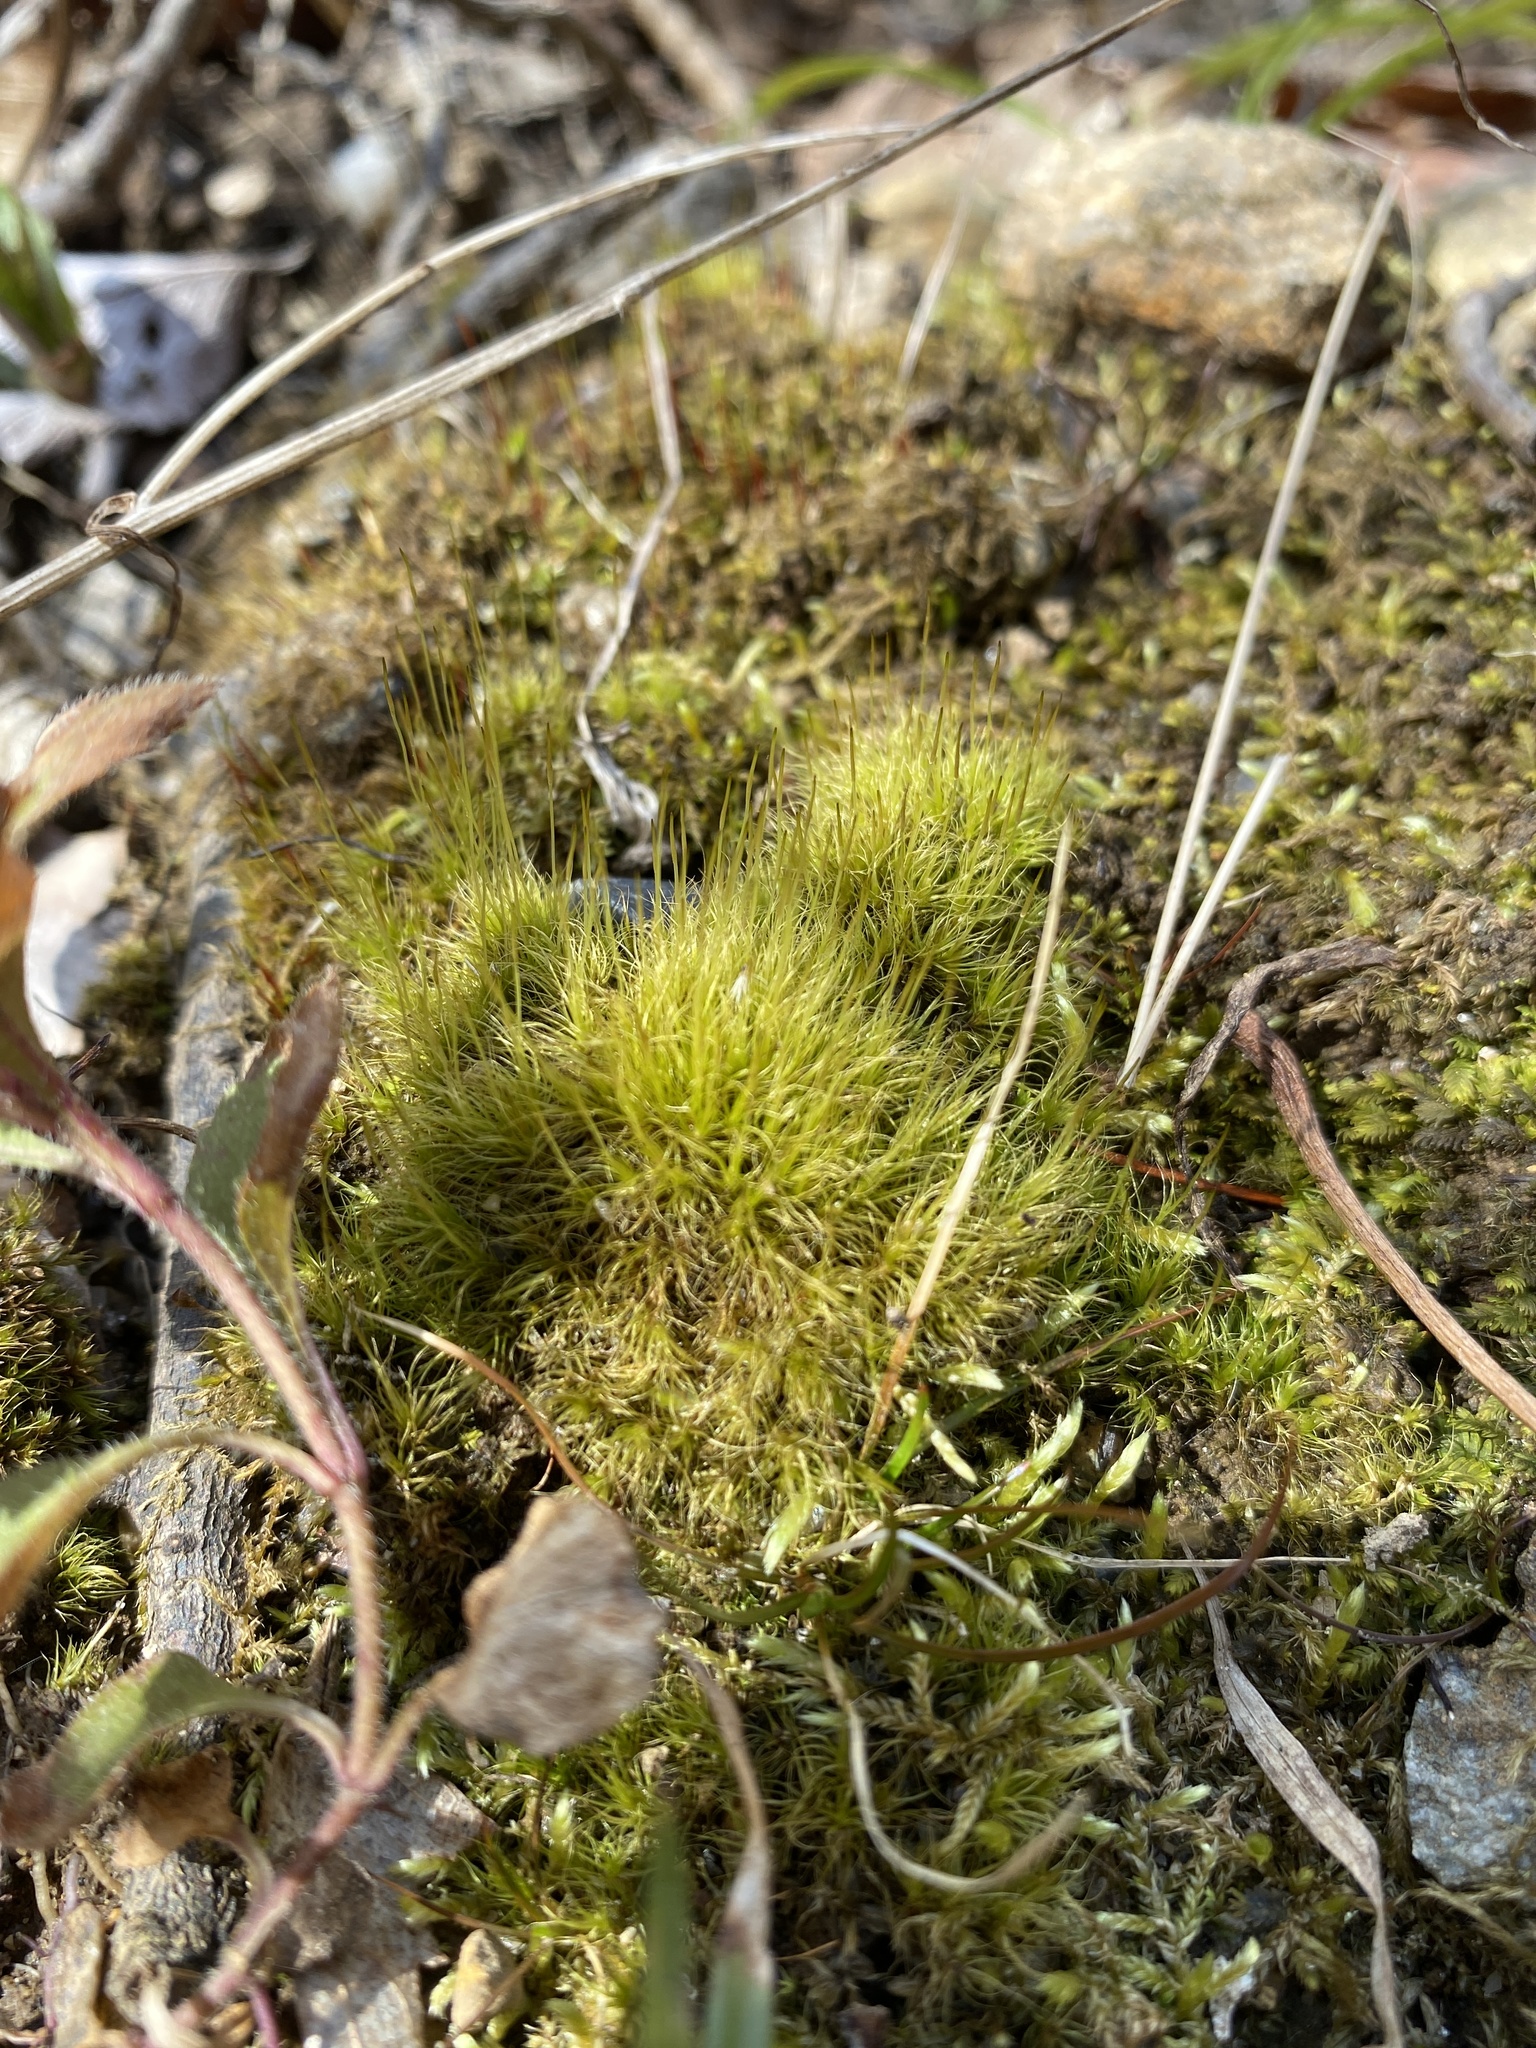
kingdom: Plantae
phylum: Bryophyta
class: Bryopsida
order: Dicranales
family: Ditrichaceae
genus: Ditrichum
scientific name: Ditrichum pallidum
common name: Pale cow-hair moss
